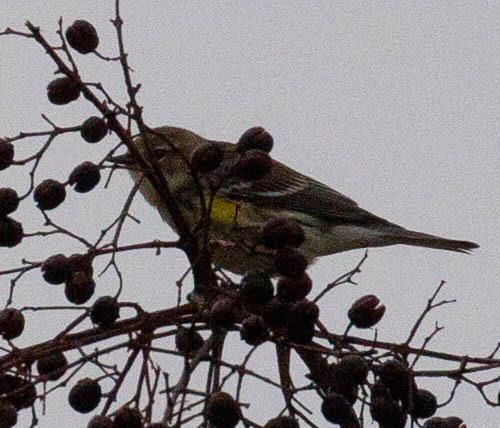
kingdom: Animalia
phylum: Chordata
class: Aves
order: Passeriformes
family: Parulidae
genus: Setophaga
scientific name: Setophaga coronata
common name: Myrtle warbler
